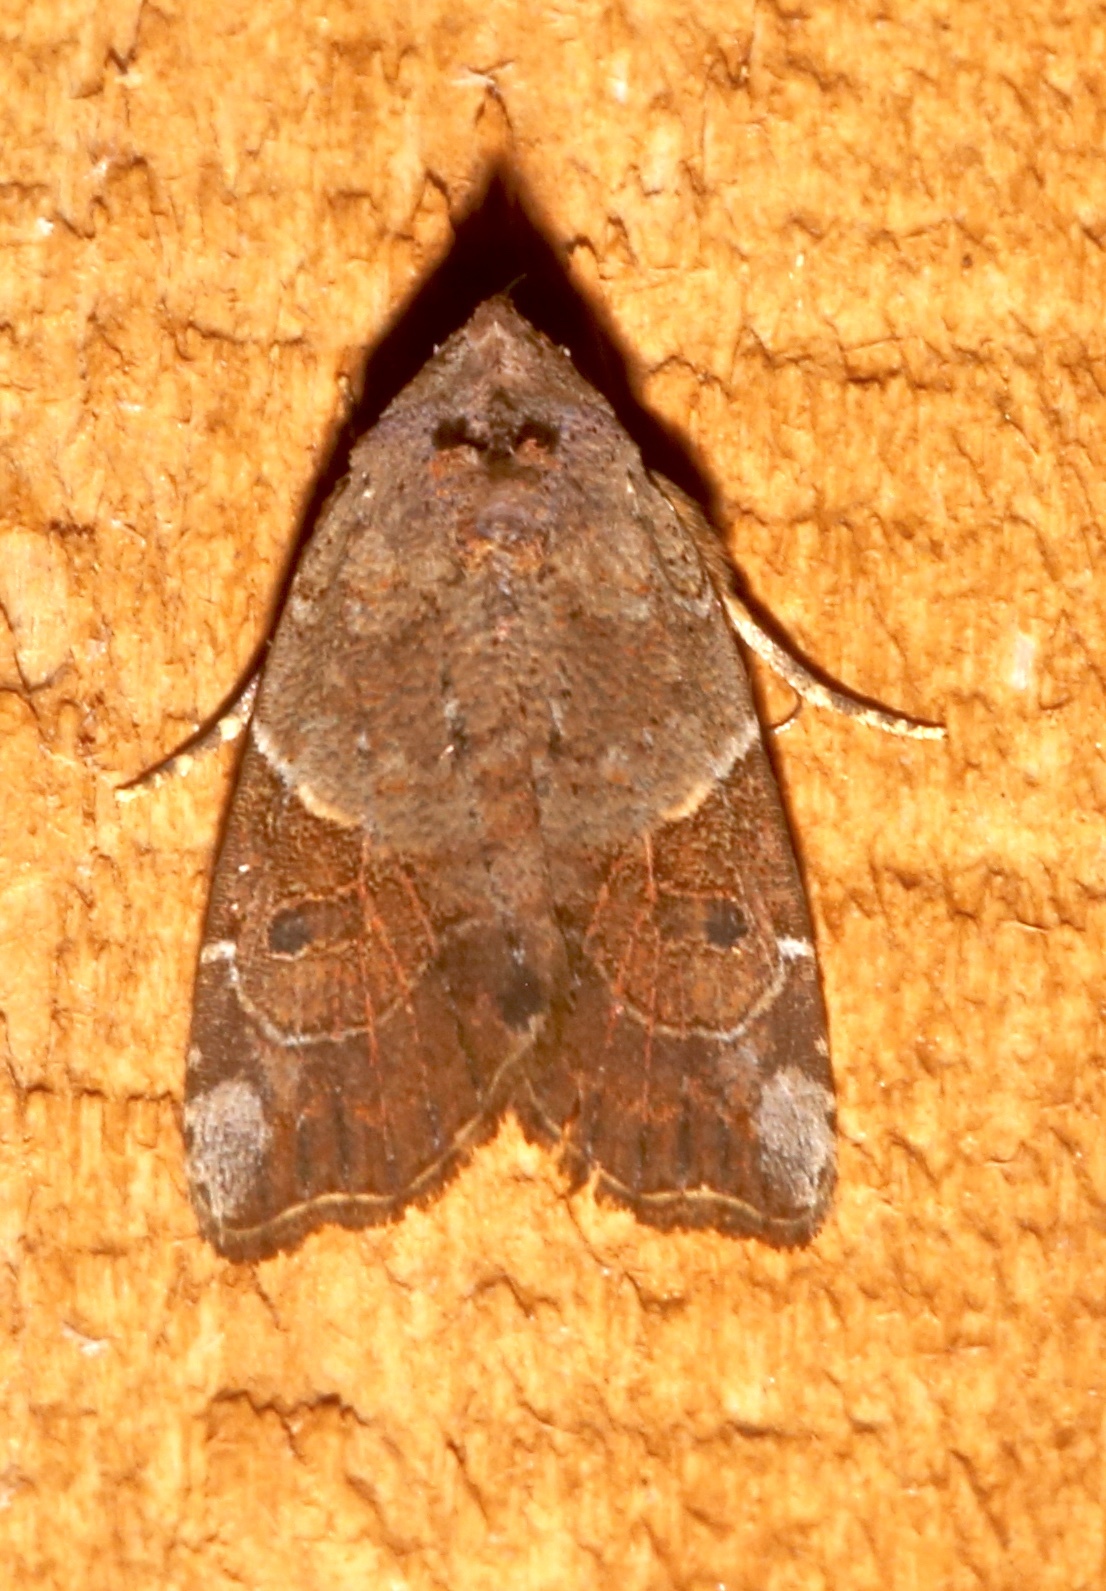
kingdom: Animalia
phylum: Arthropoda
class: Insecta
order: Lepidoptera
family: Noctuidae
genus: Gonodes
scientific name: Gonodes liquida
